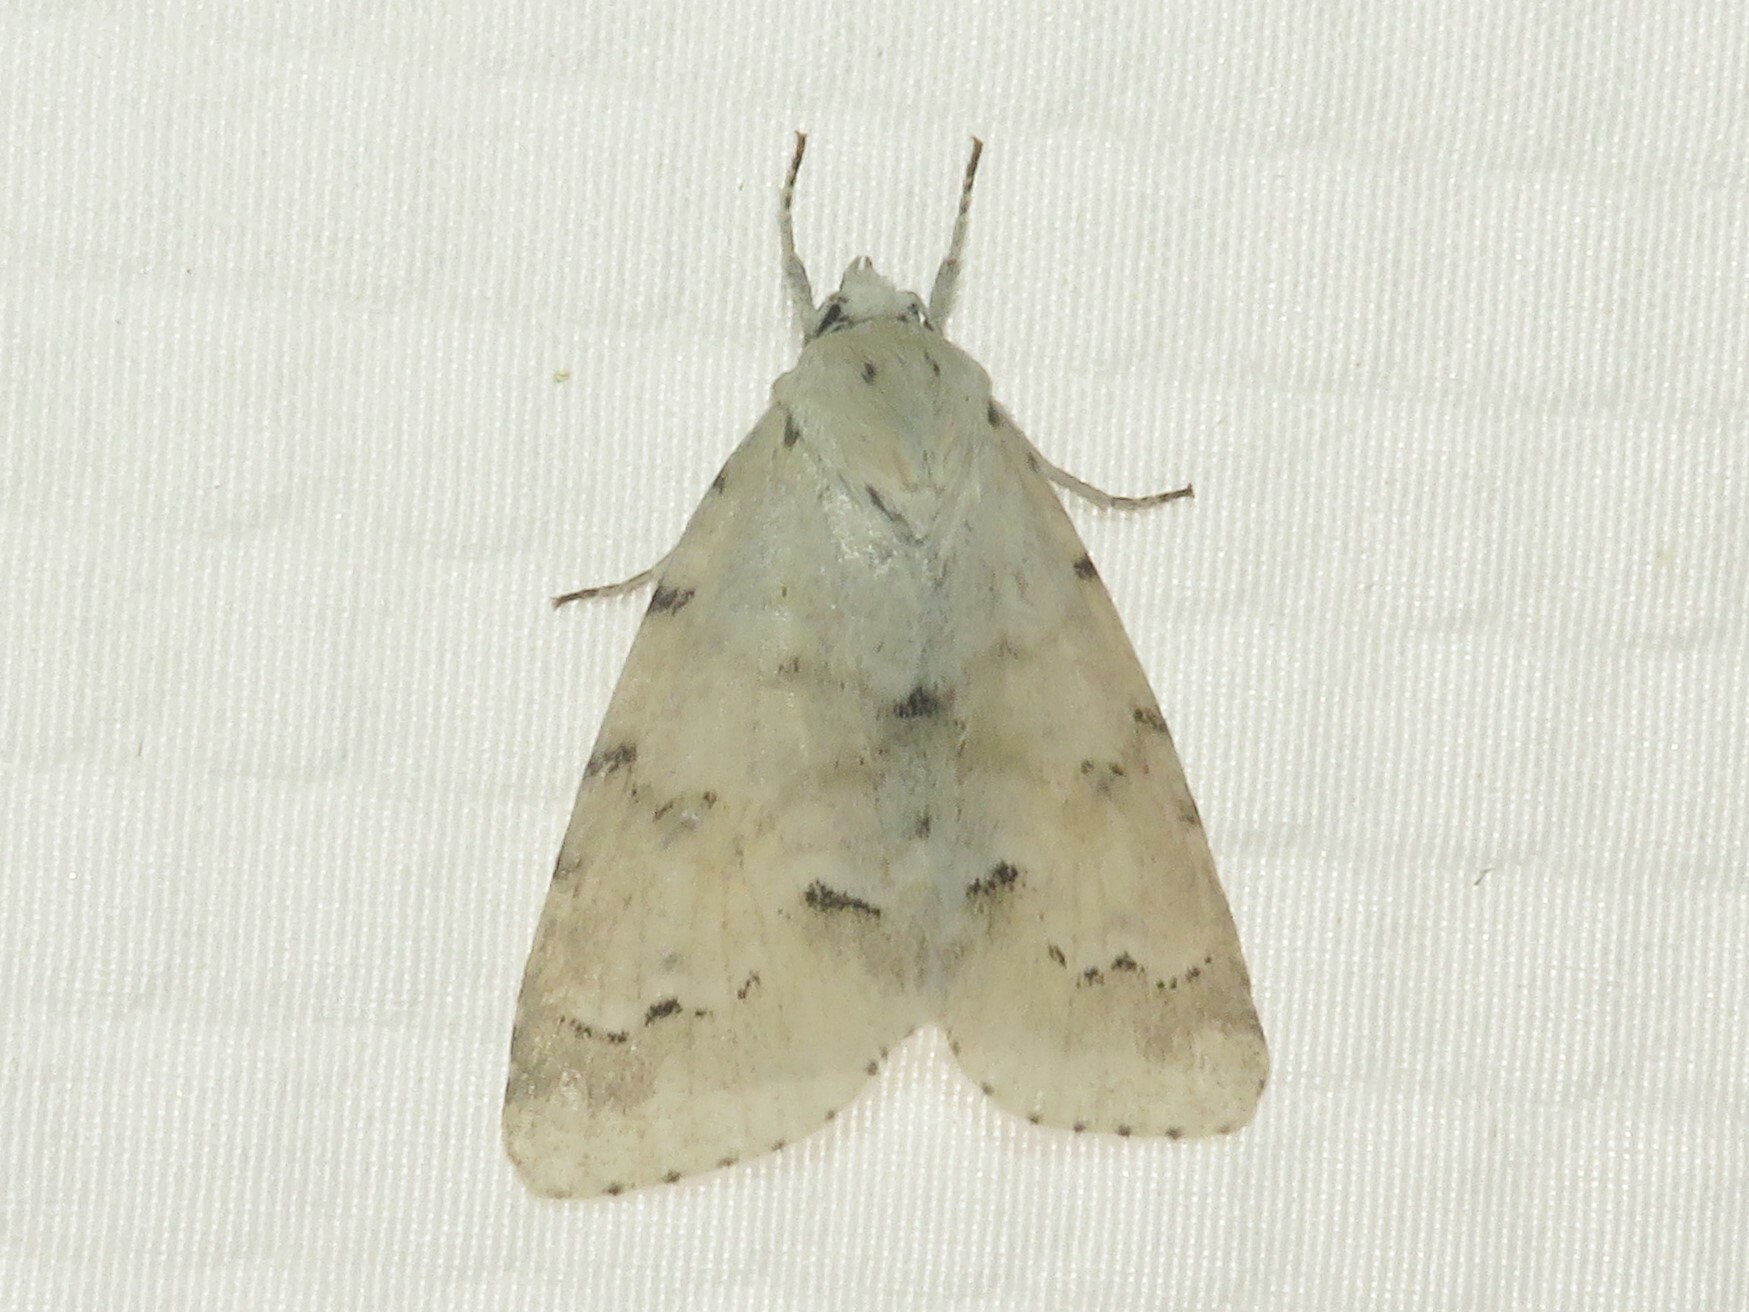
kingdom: Animalia
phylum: Arthropoda
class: Insecta
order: Lepidoptera
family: Noctuidae
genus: Acronicta
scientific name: Acronicta innotata
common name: Unmarked dagger
